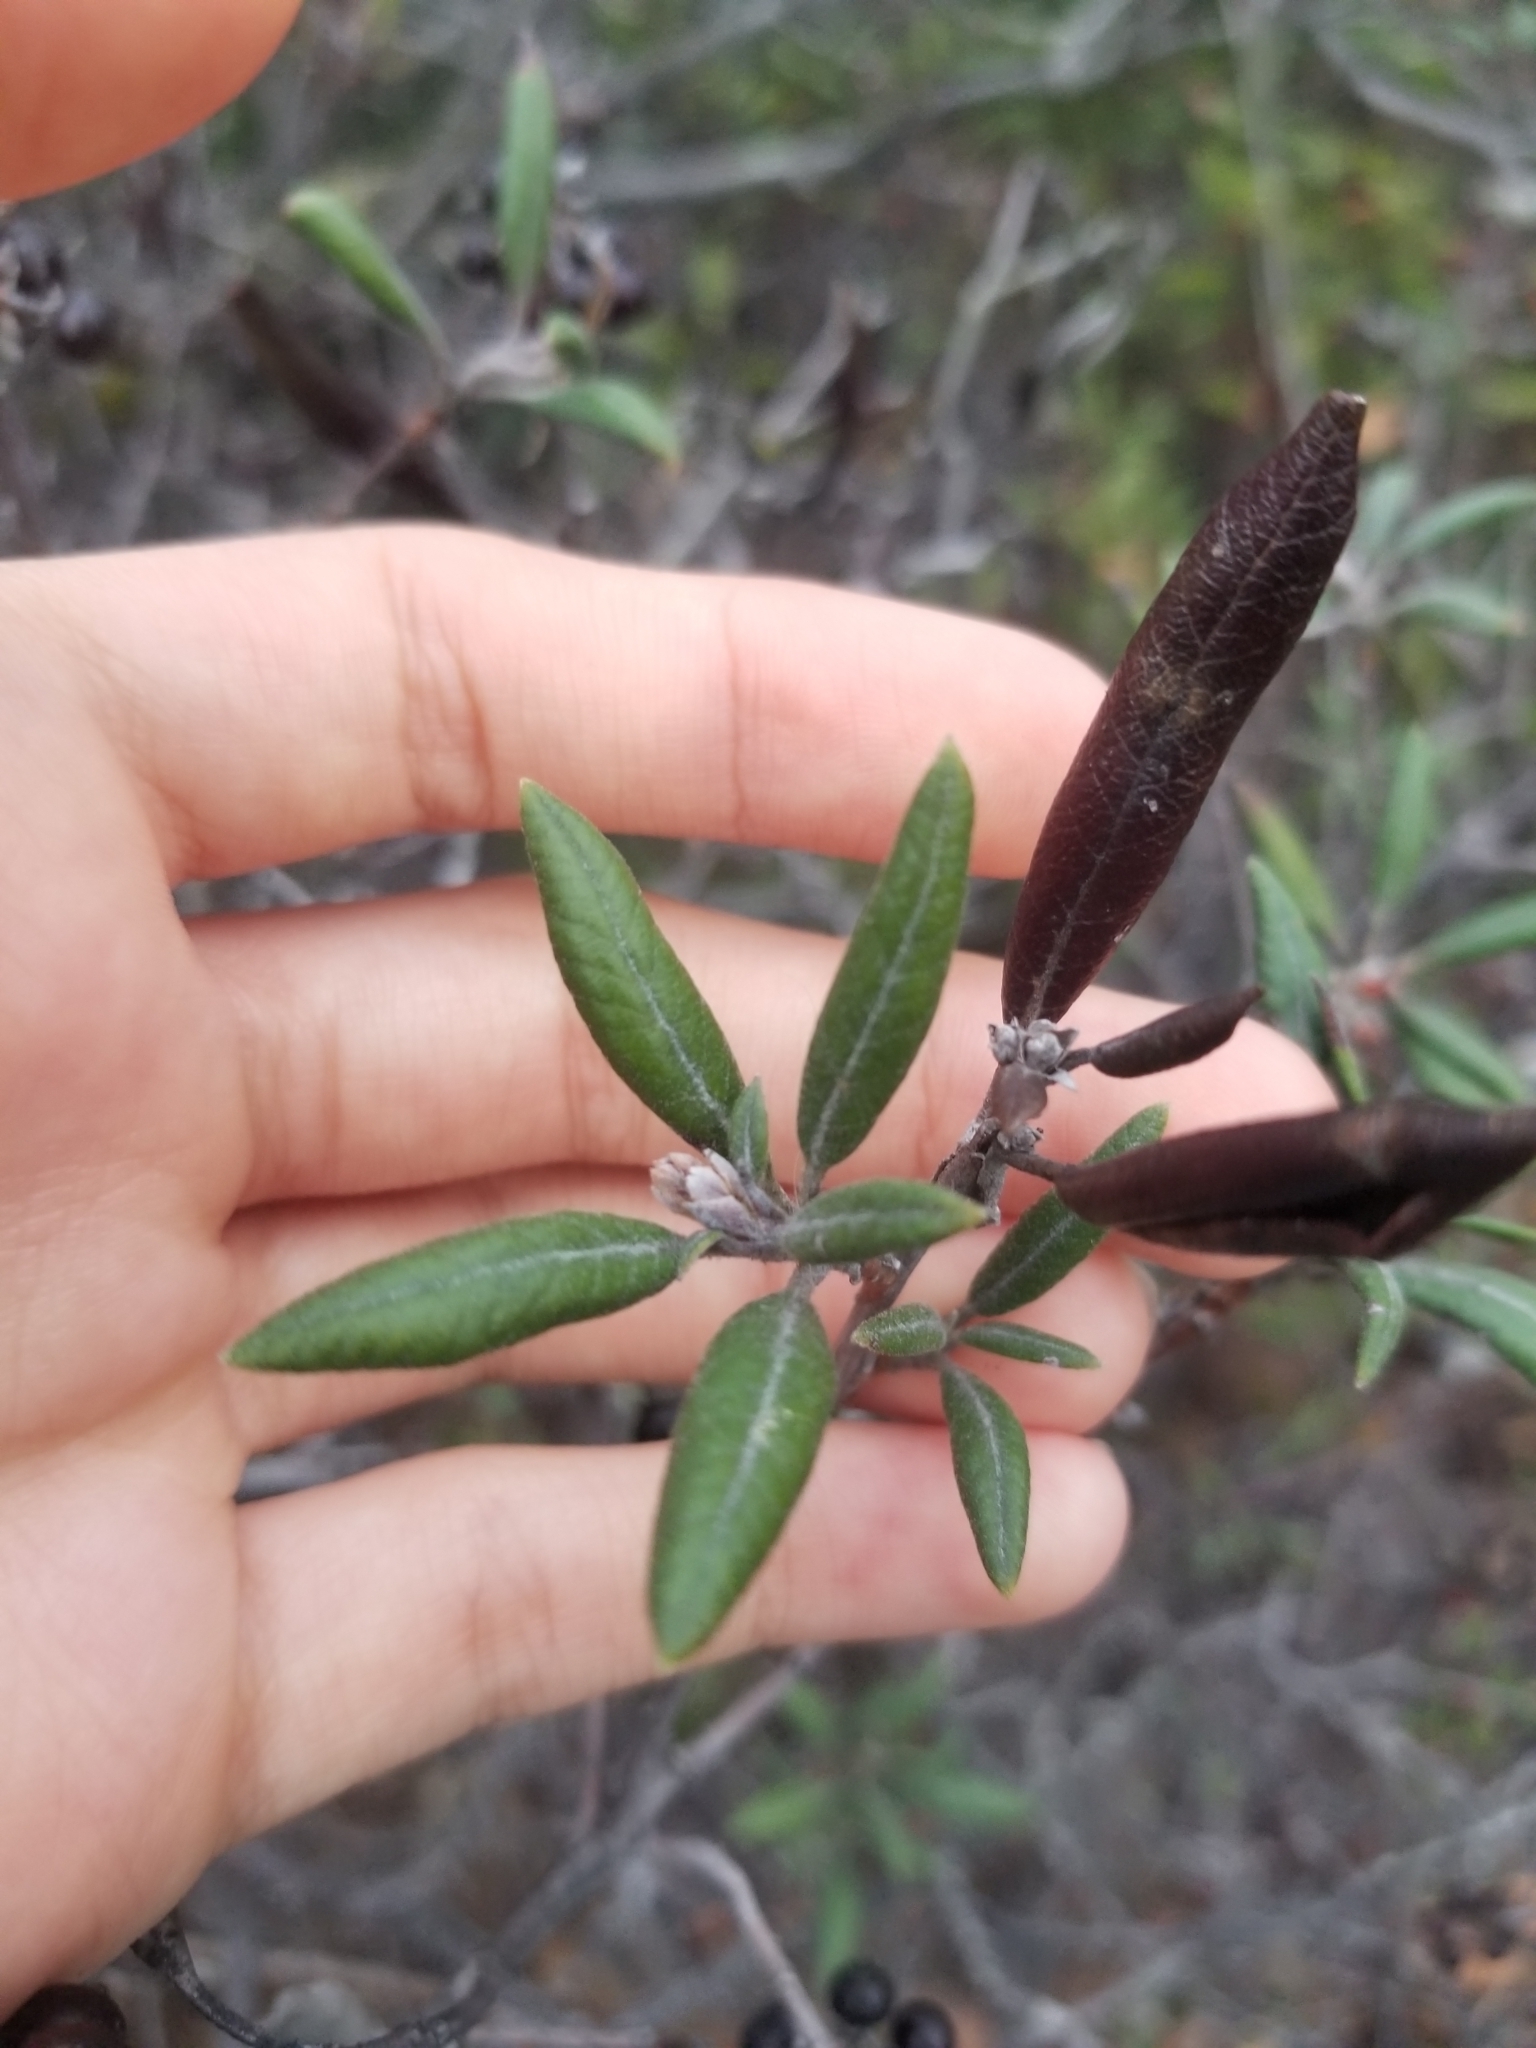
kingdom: Plantae
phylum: Tracheophyta
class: Magnoliopsida
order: Ericales
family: Ericaceae
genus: Arctostaphylos
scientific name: Arctostaphylos bicolor
